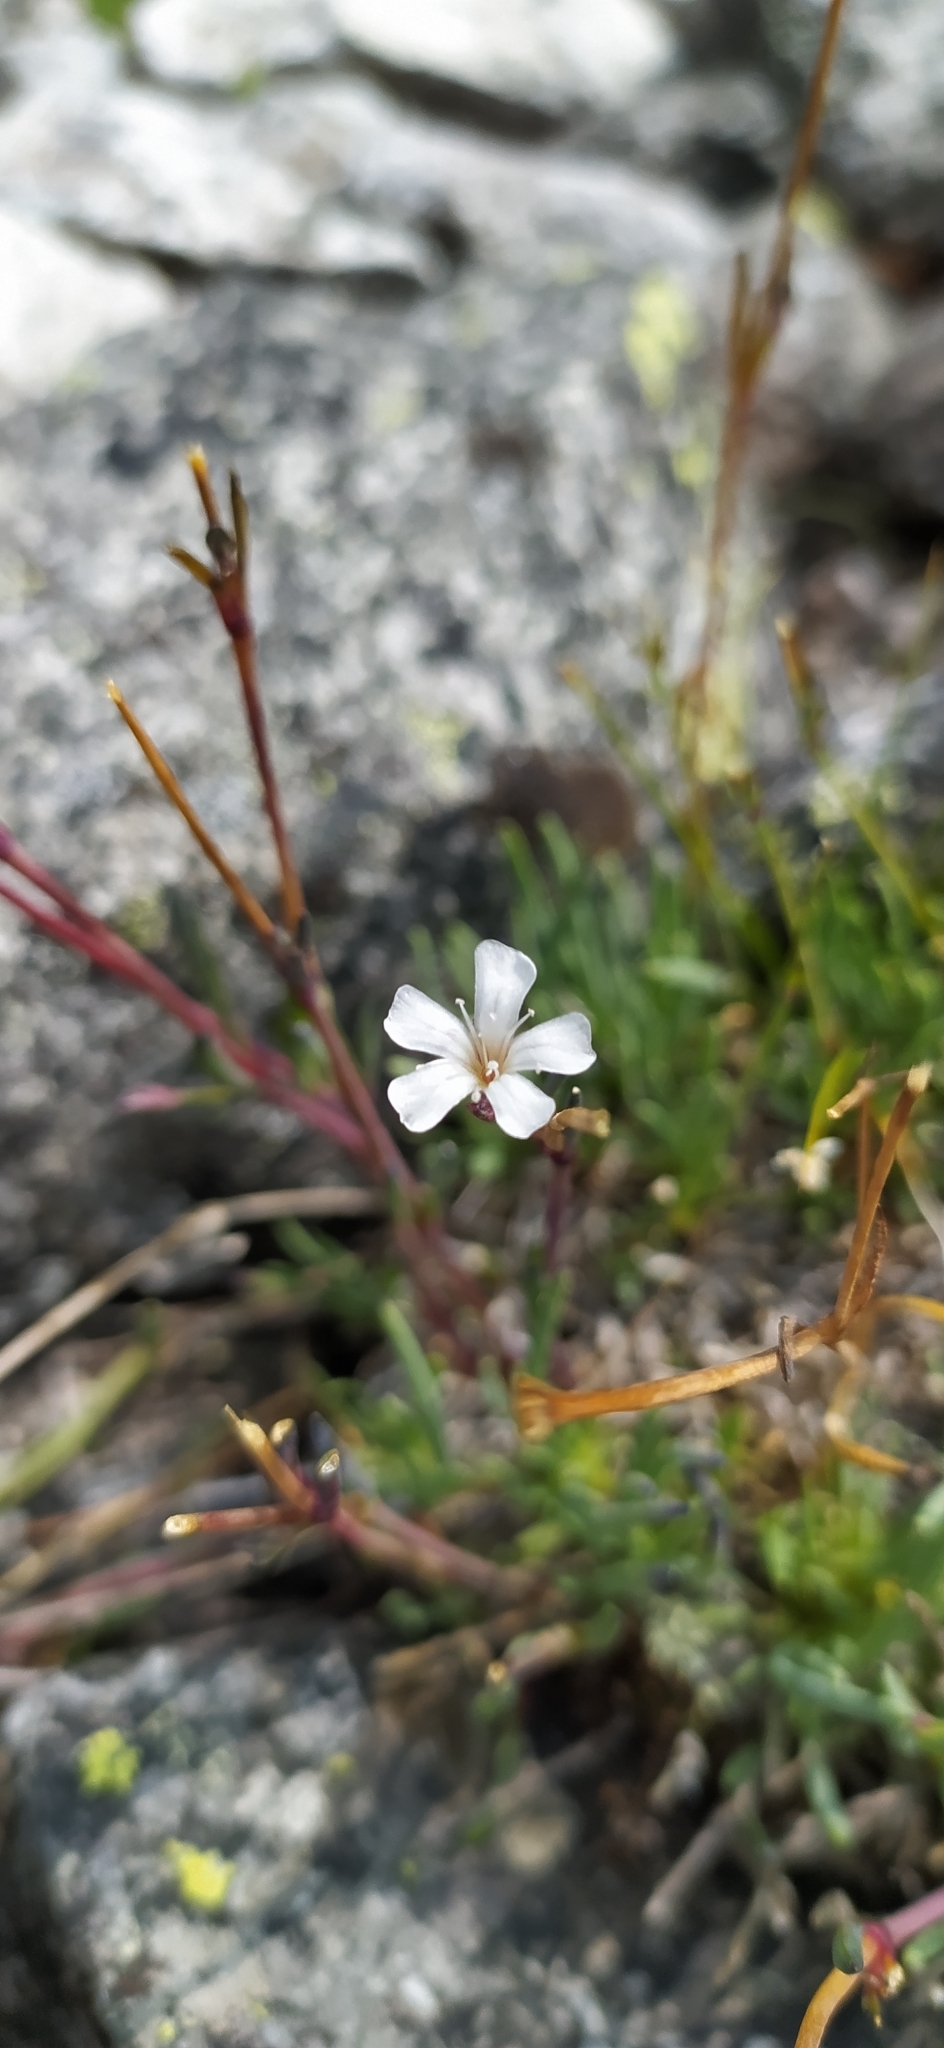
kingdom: Plantae
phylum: Tracheophyta
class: Magnoliopsida
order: Caryophyllales
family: Caryophyllaceae
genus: Gypsophila
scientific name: Gypsophila uralensis
